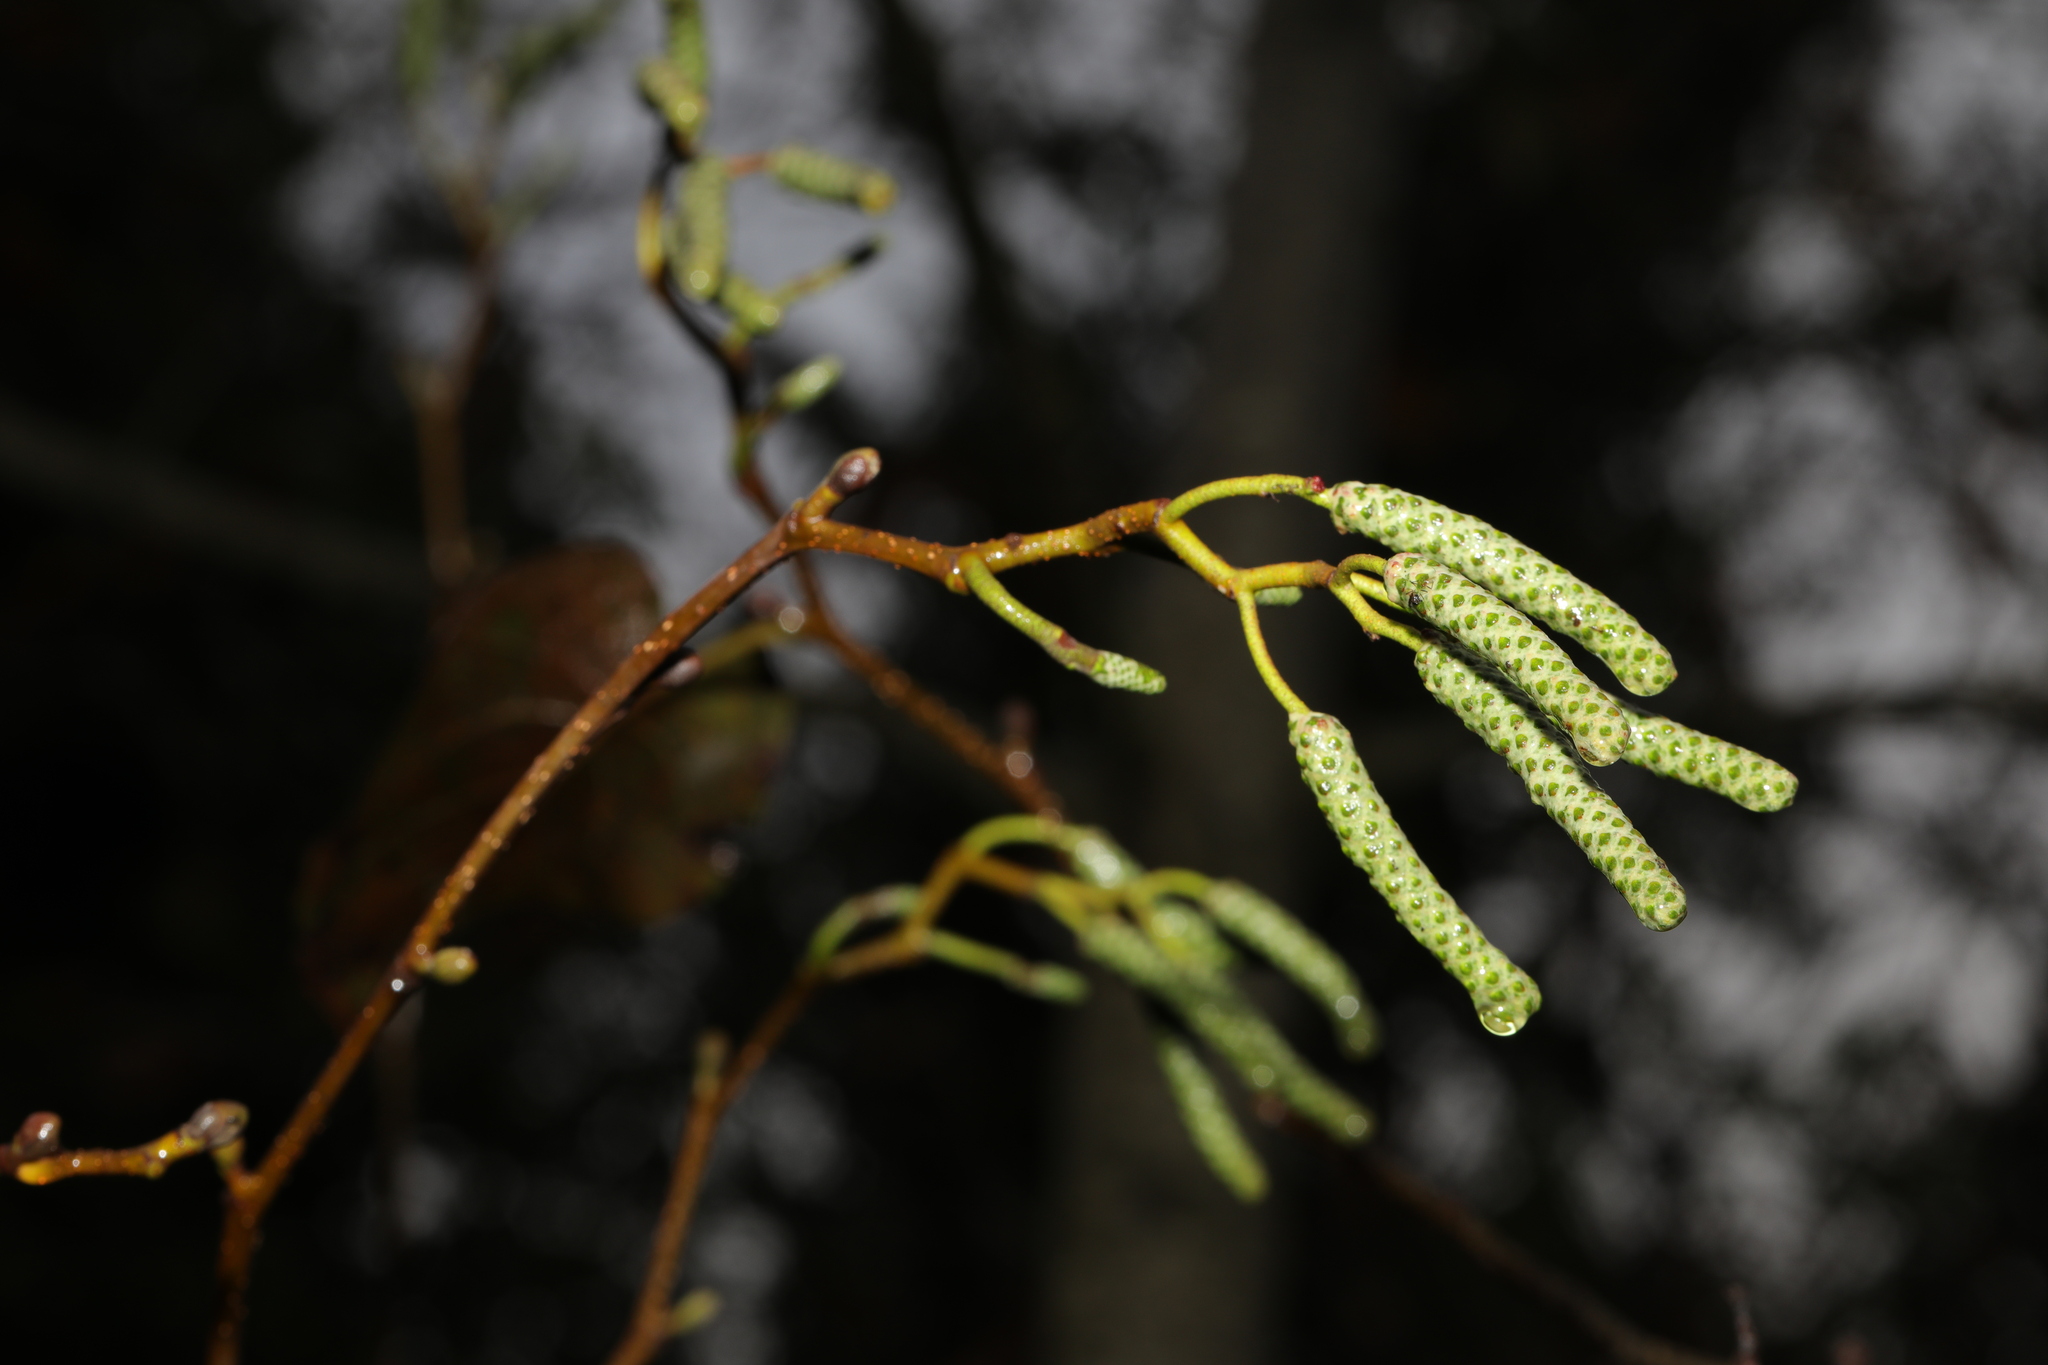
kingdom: Plantae
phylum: Tracheophyta
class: Magnoliopsida
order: Fagales
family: Betulaceae
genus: Alnus
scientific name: Alnus glutinosa
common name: Black alder
